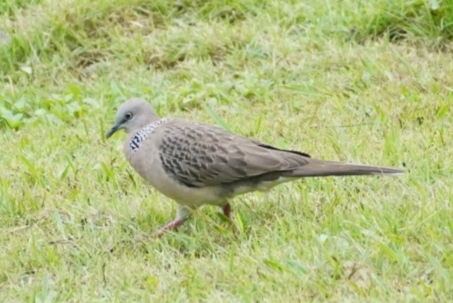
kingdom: Animalia
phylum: Chordata
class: Aves
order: Columbiformes
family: Columbidae
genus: Spilopelia
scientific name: Spilopelia chinensis
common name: Spotted dove
